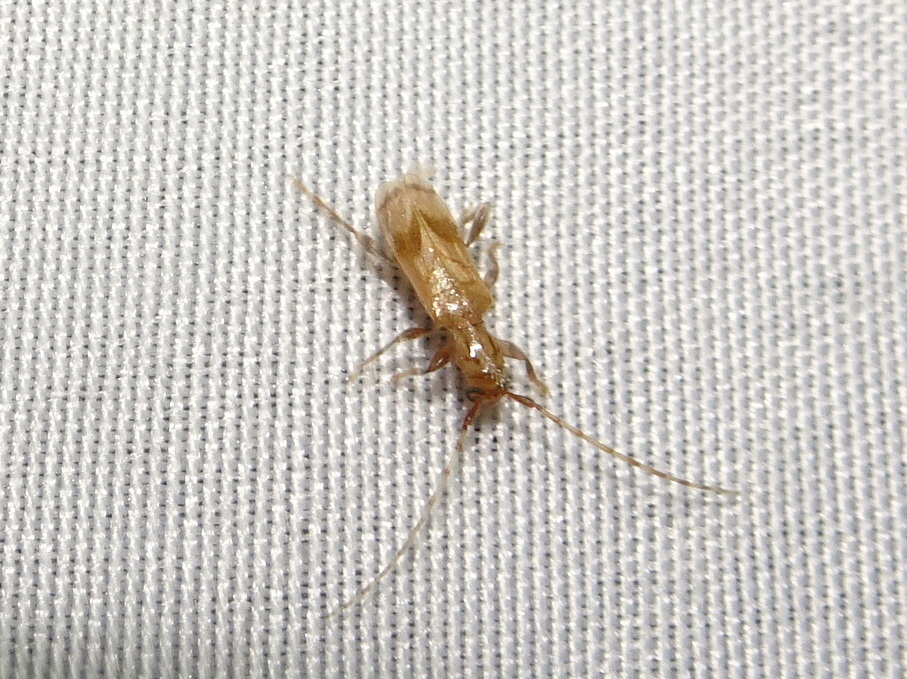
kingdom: Animalia
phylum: Arthropoda
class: Insecta
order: Coleoptera
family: Cerambycidae
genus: Obrium
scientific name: Obrium maculatum
